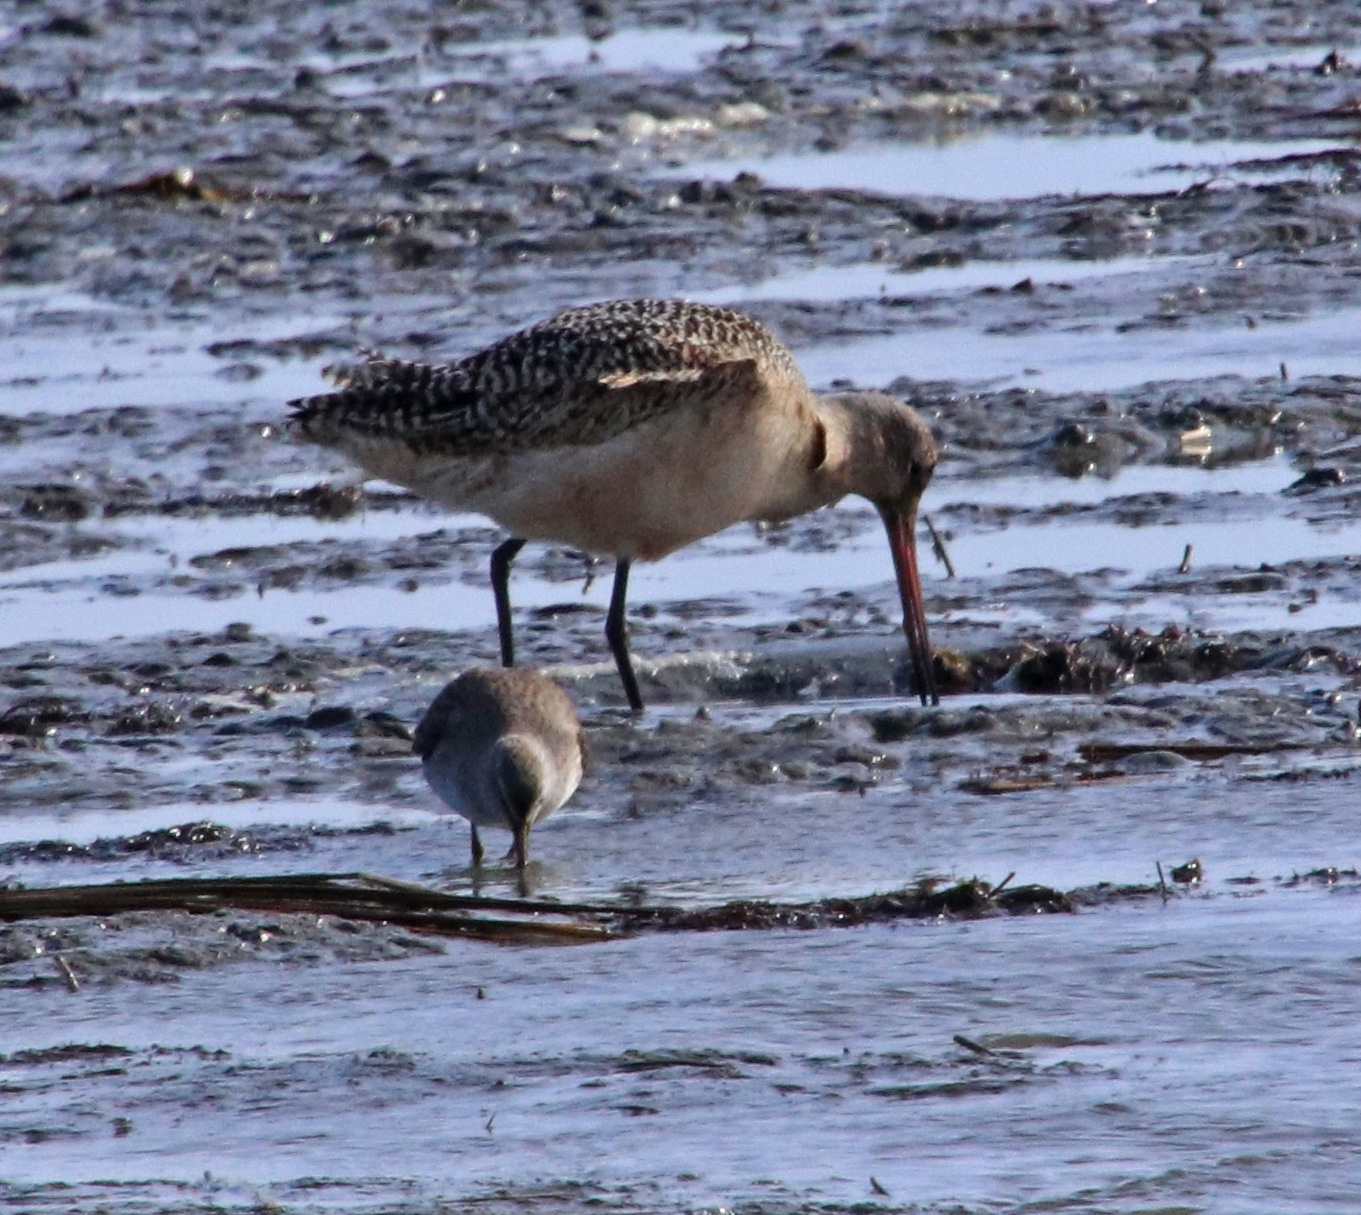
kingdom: Animalia
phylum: Chordata
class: Aves
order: Charadriiformes
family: Scolopacidae
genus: Limosa
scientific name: Limosa fedoa
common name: Marbled godwit
